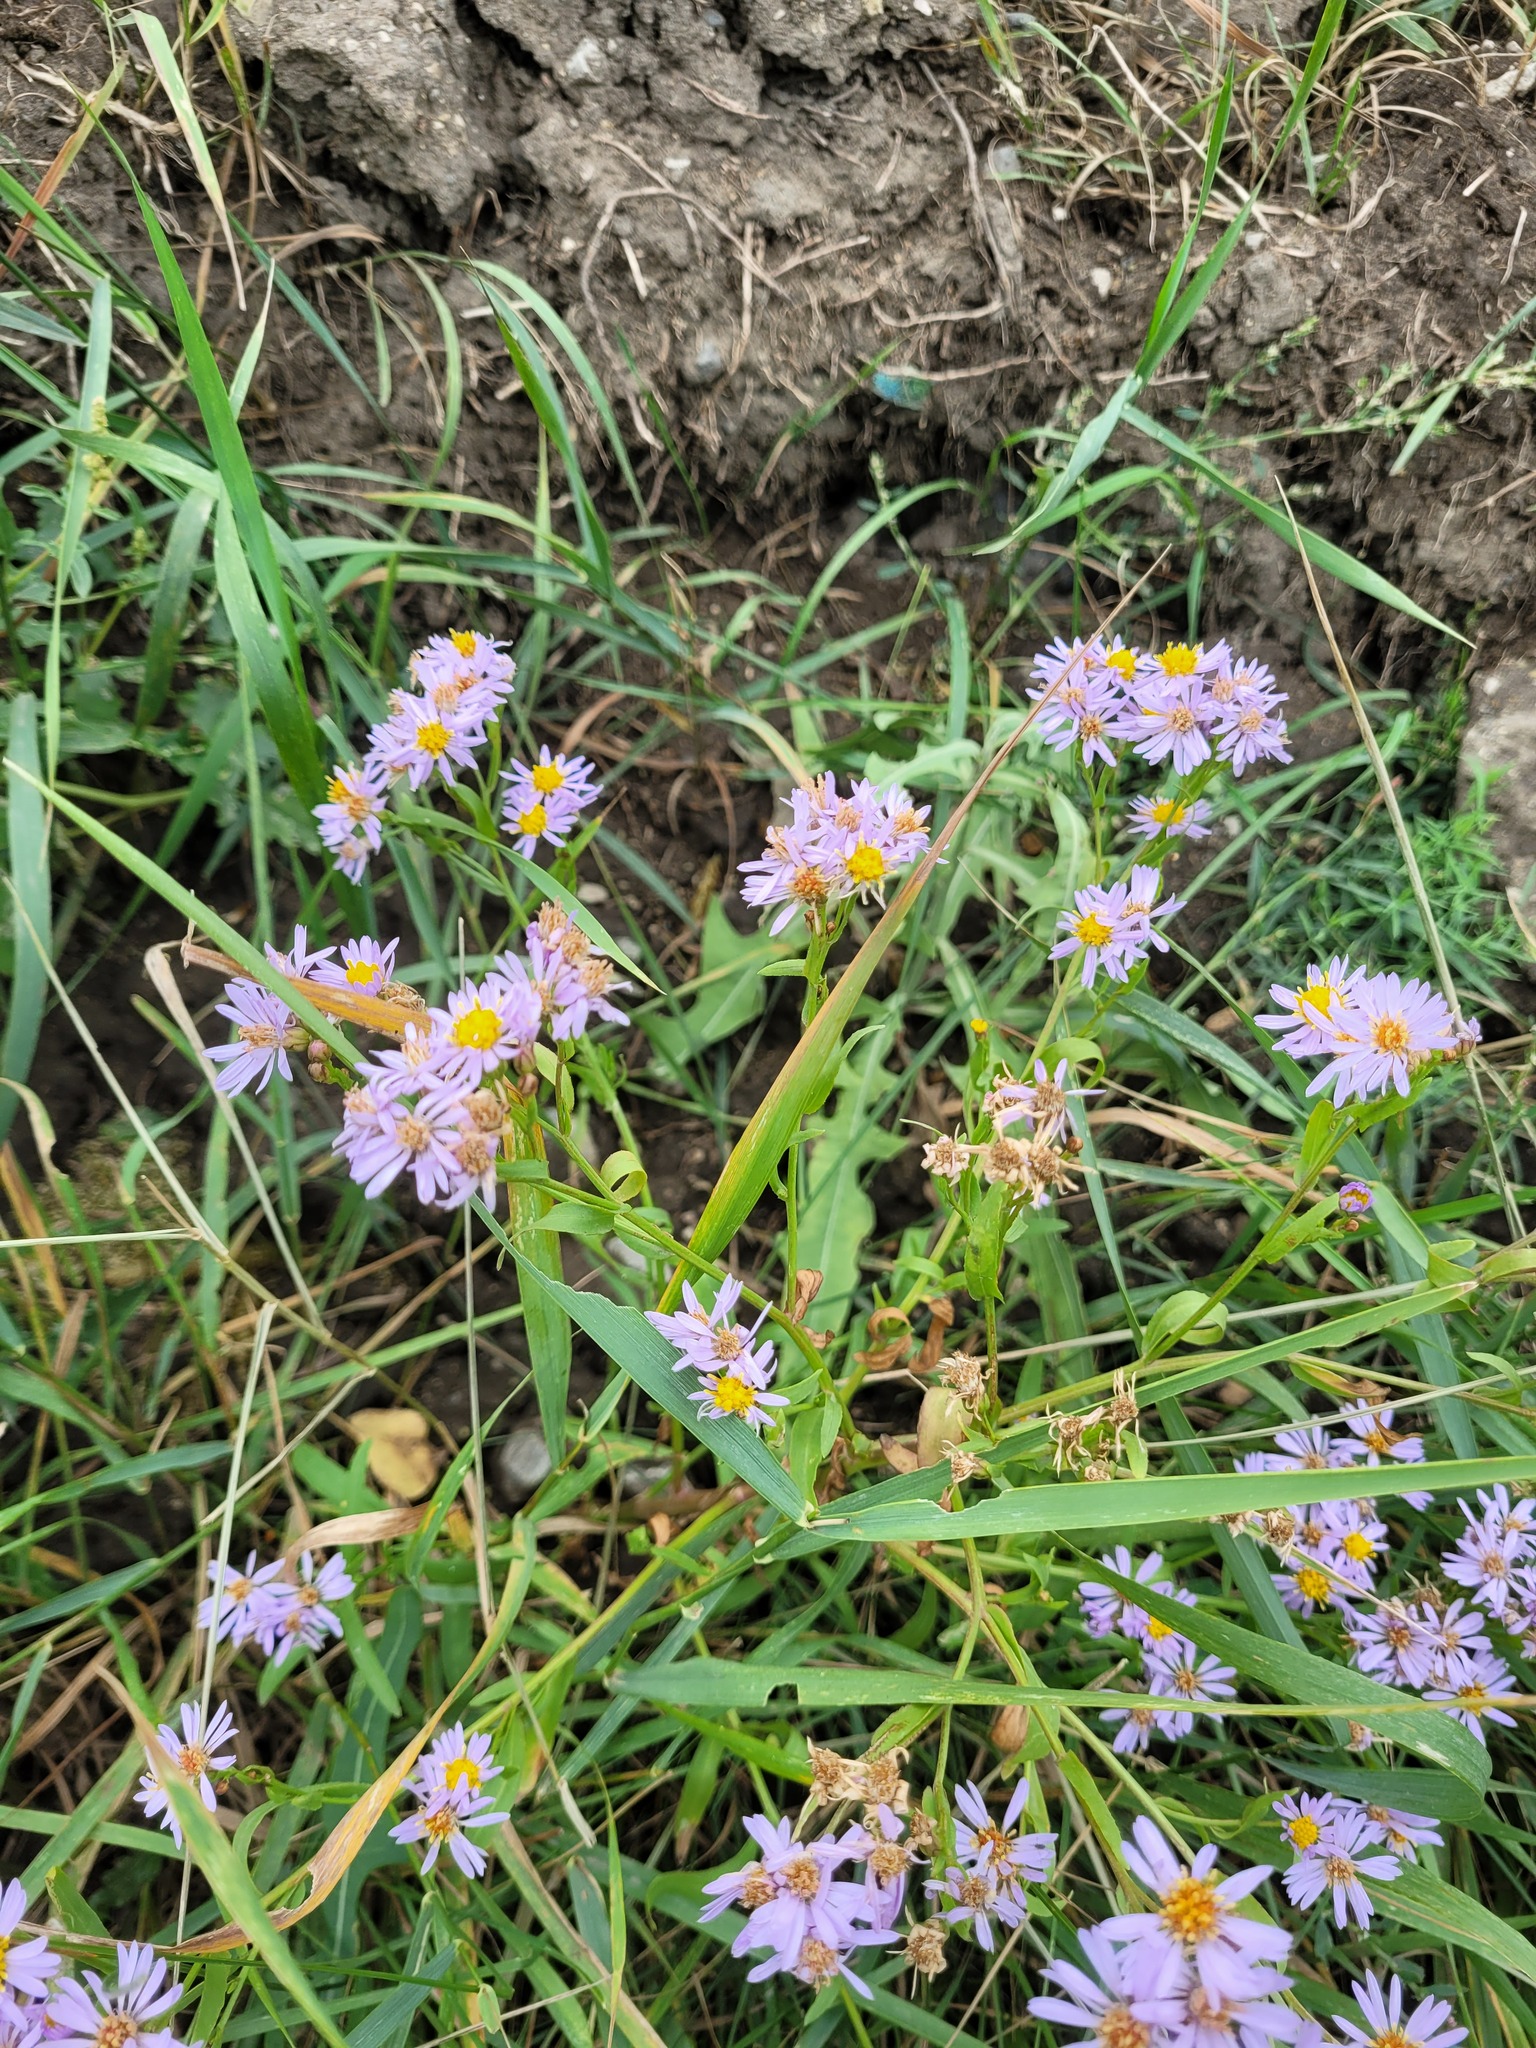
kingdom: Plantae
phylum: Tracheophyta
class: Magnoliopsida
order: Asterales
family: Asteraceae
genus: Tripolium
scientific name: Tripolium pannonicum
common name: Sea aster
